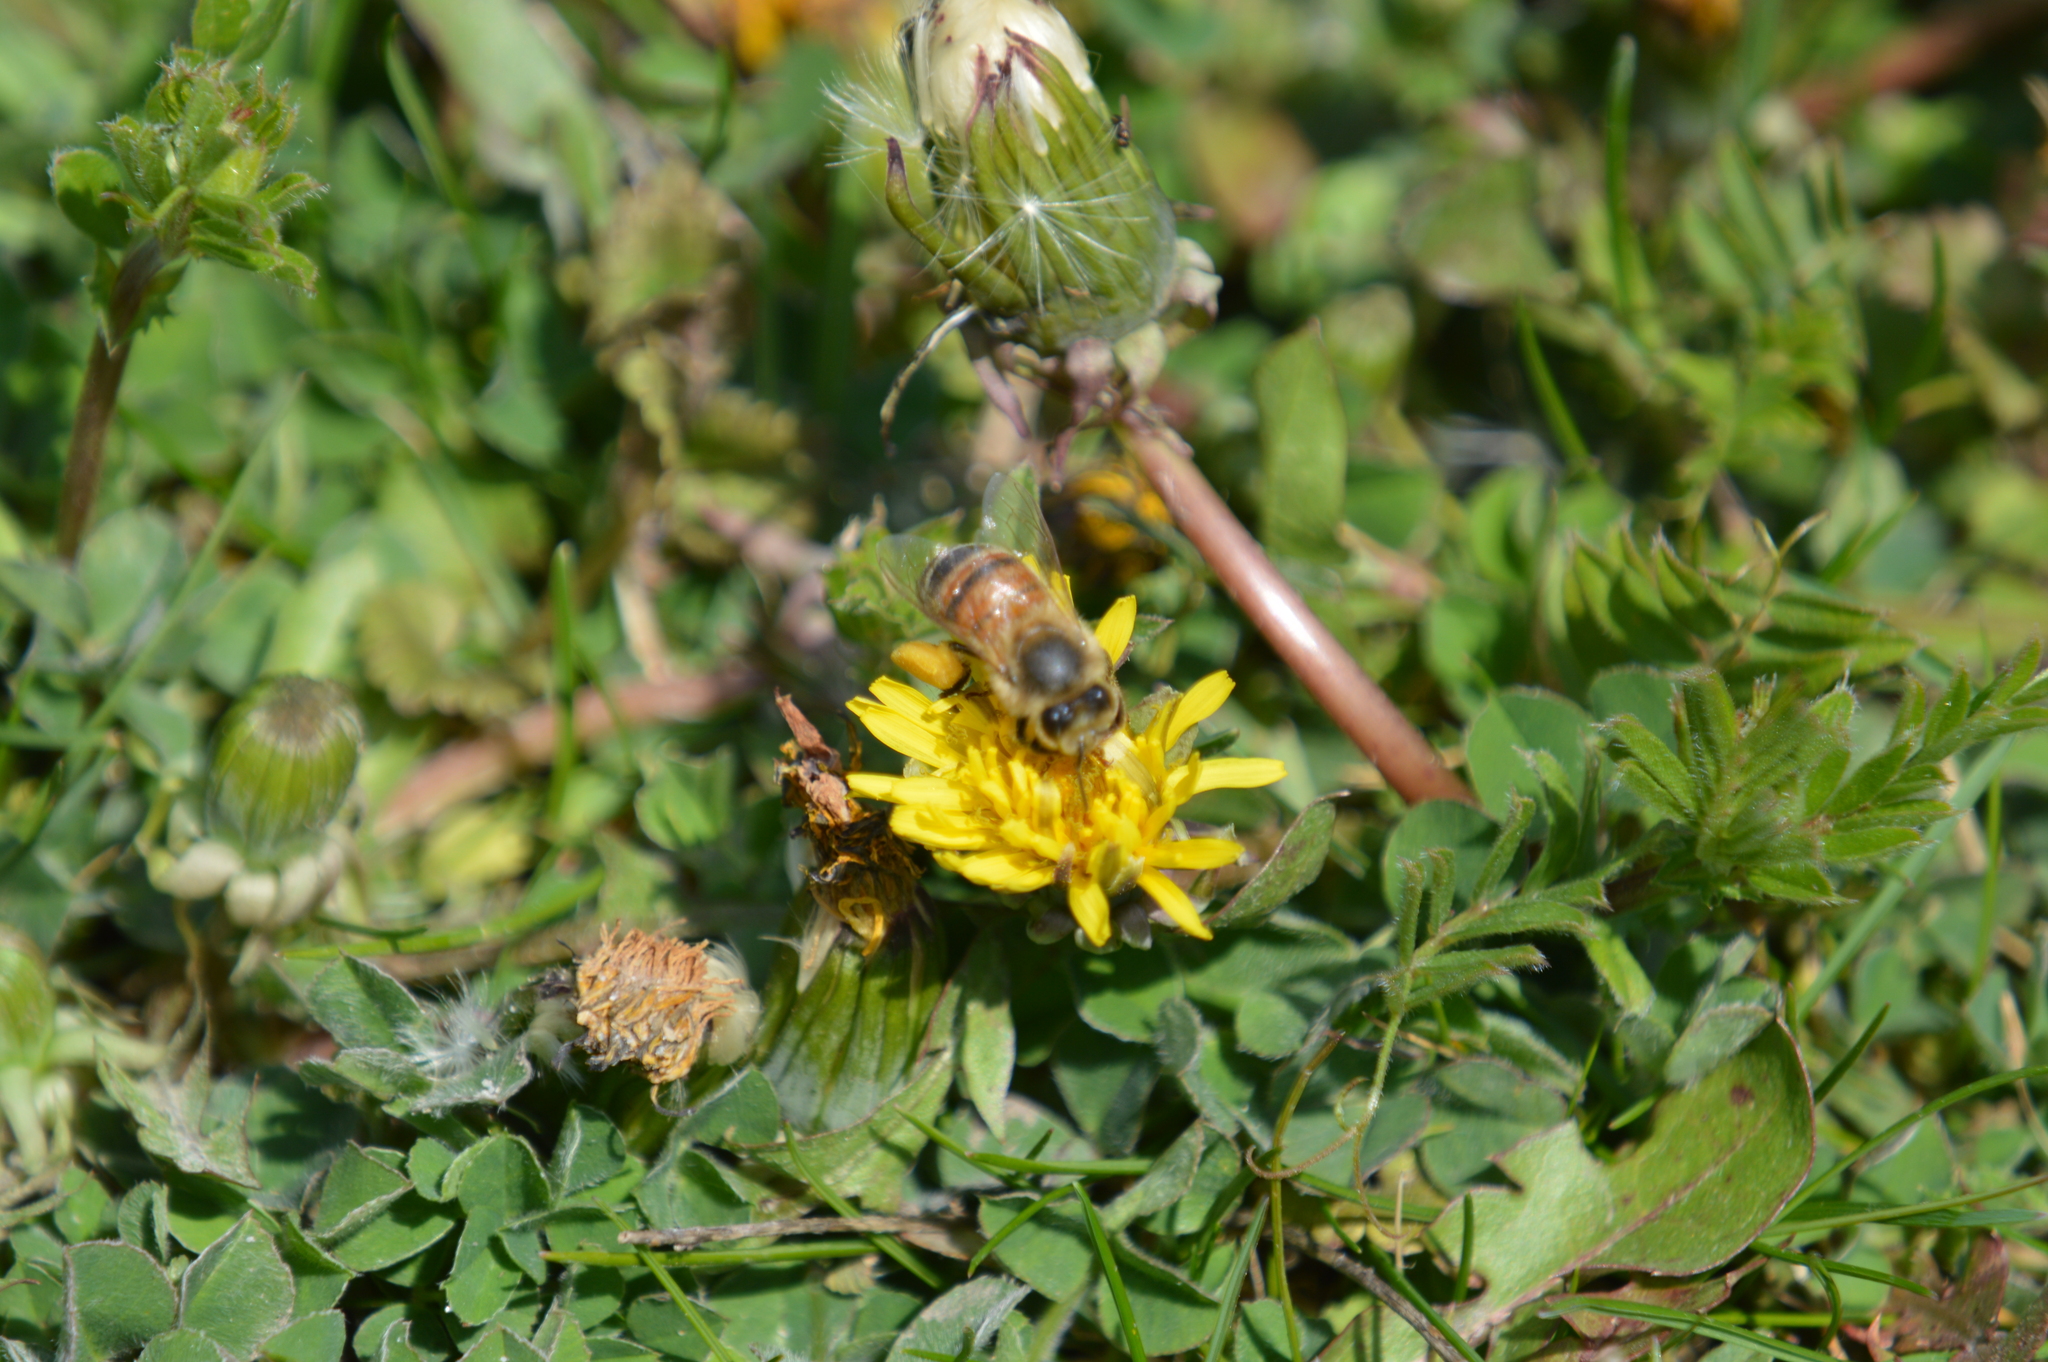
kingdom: Plantae
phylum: Tracheophyta
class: Magnoliopsida
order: Asterales
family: Asteraceae
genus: Taraxacum
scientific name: Taraxacum
